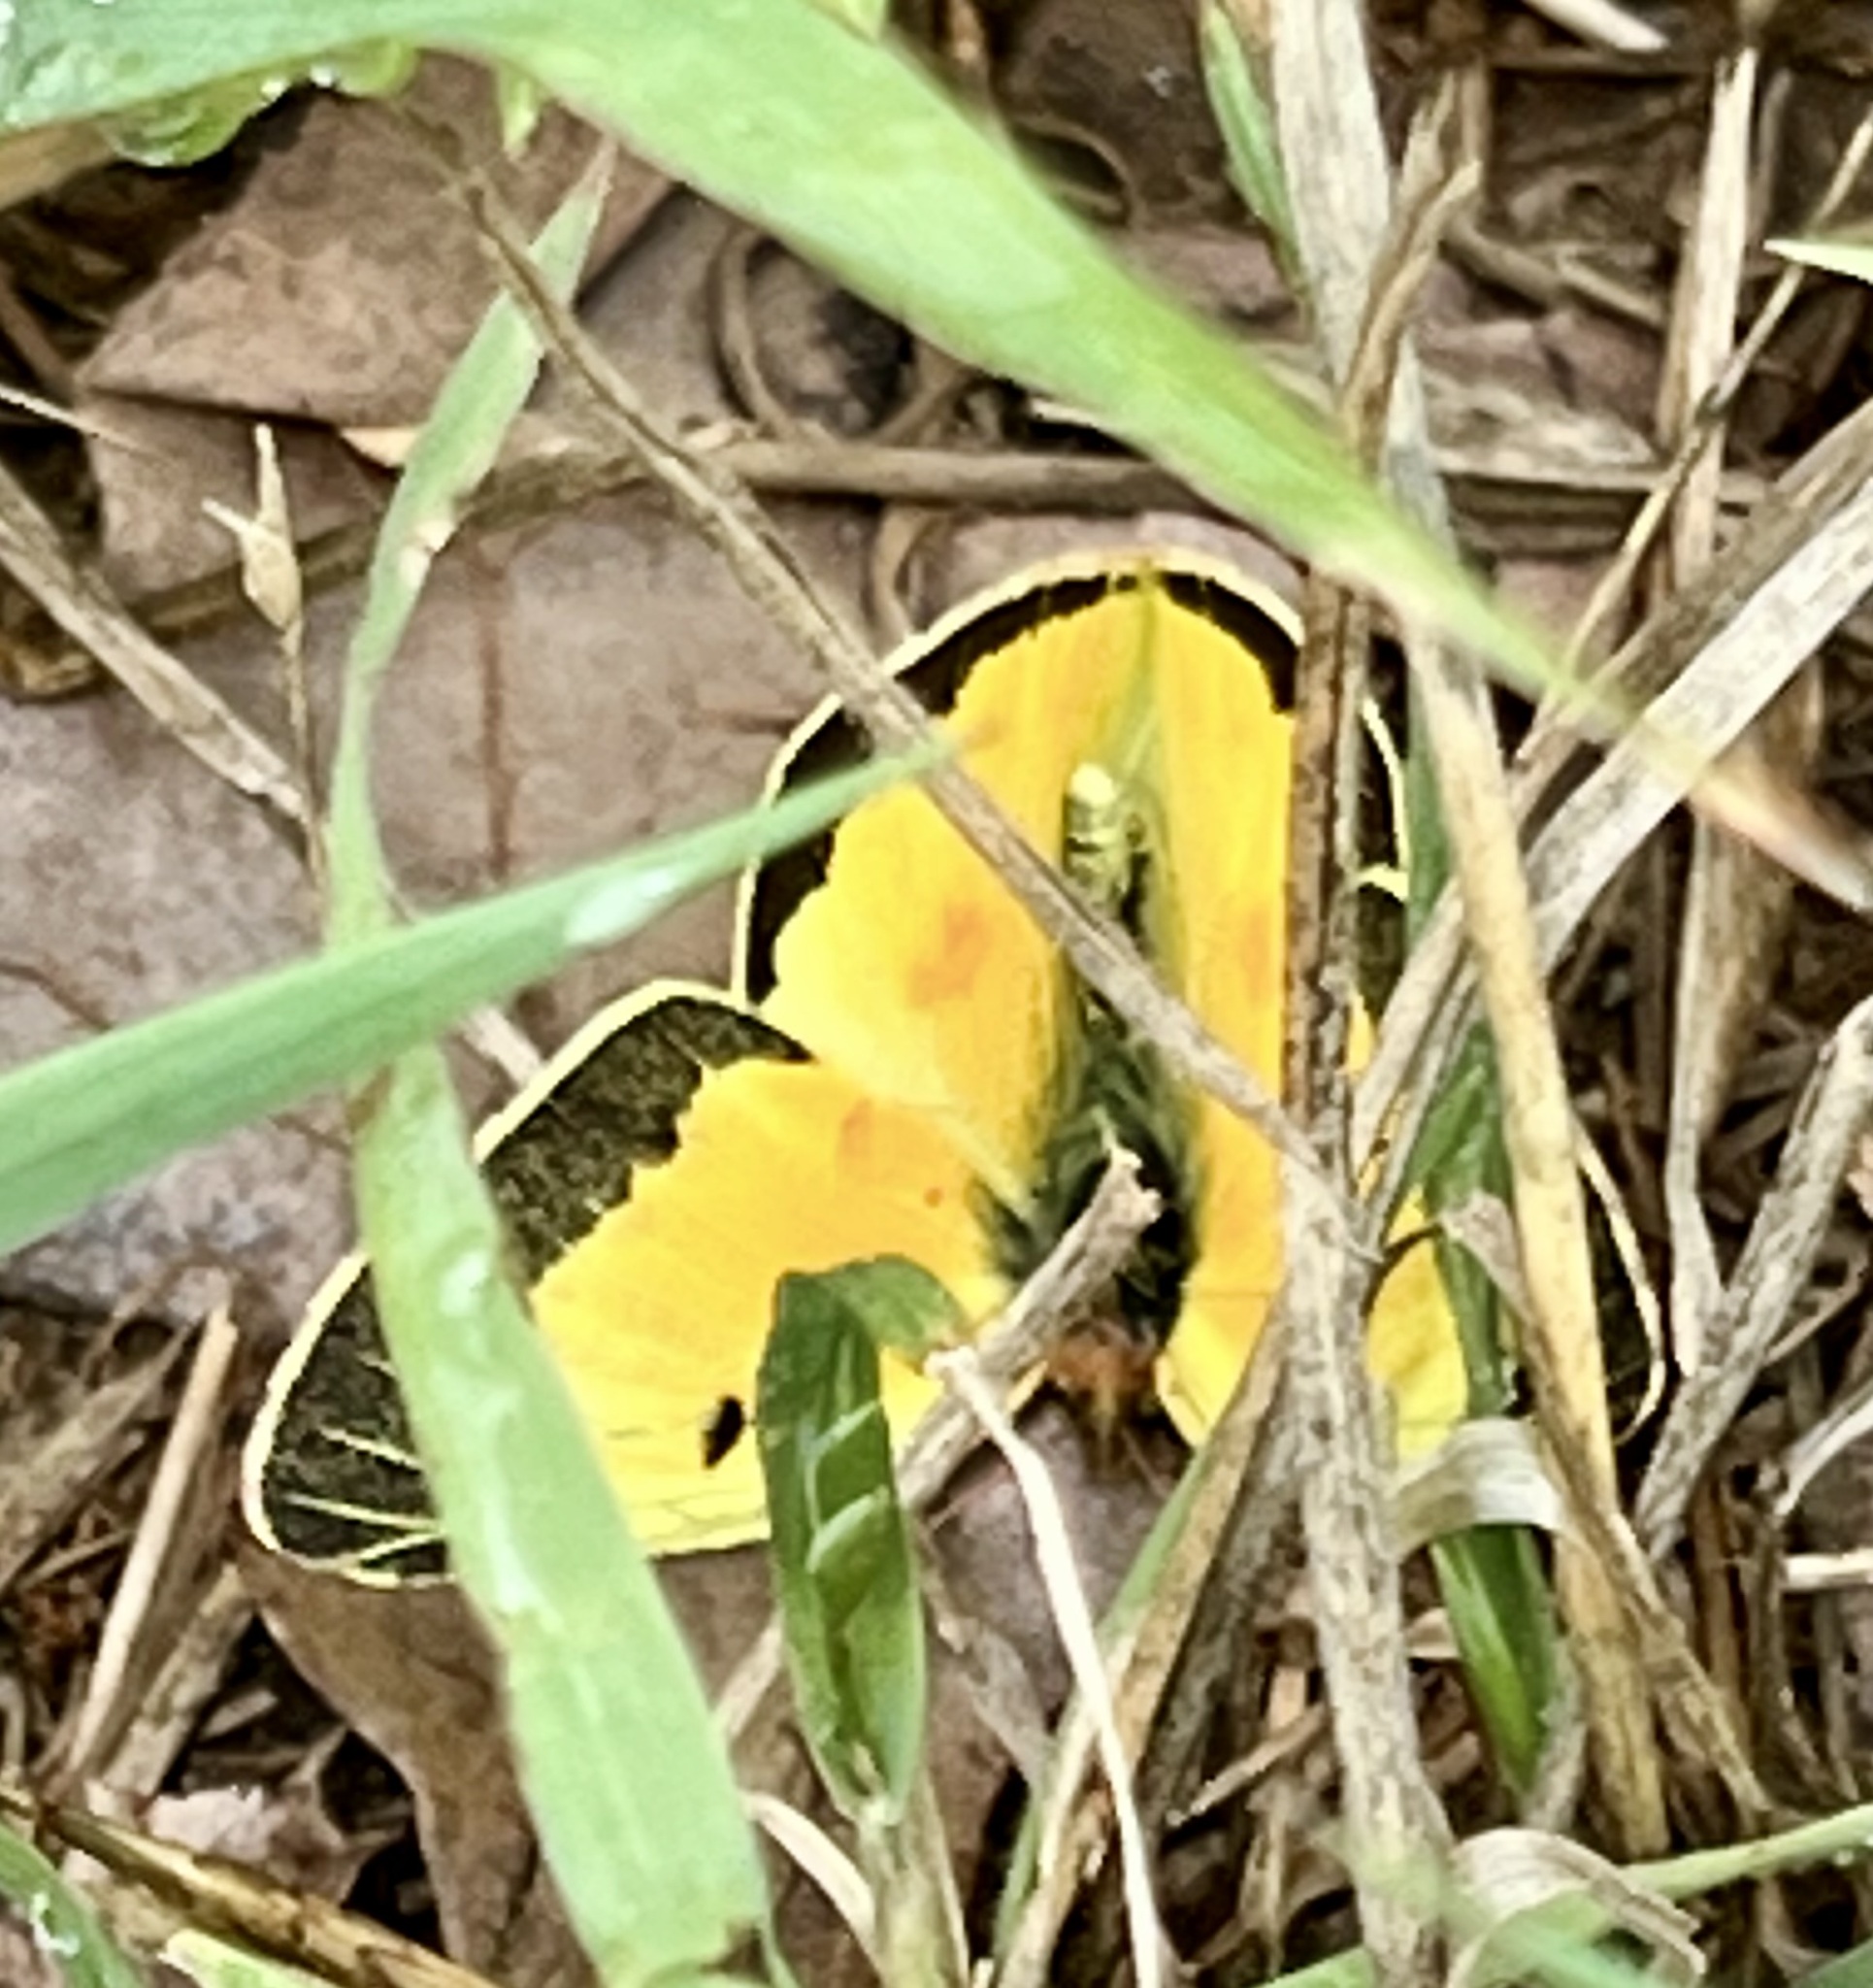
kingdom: Animalia
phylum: Arthropoda
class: Insecta
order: Lepidoptera
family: Pieridae
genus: Colias
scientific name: Colias eurytheme
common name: Alfalfa butterfly
